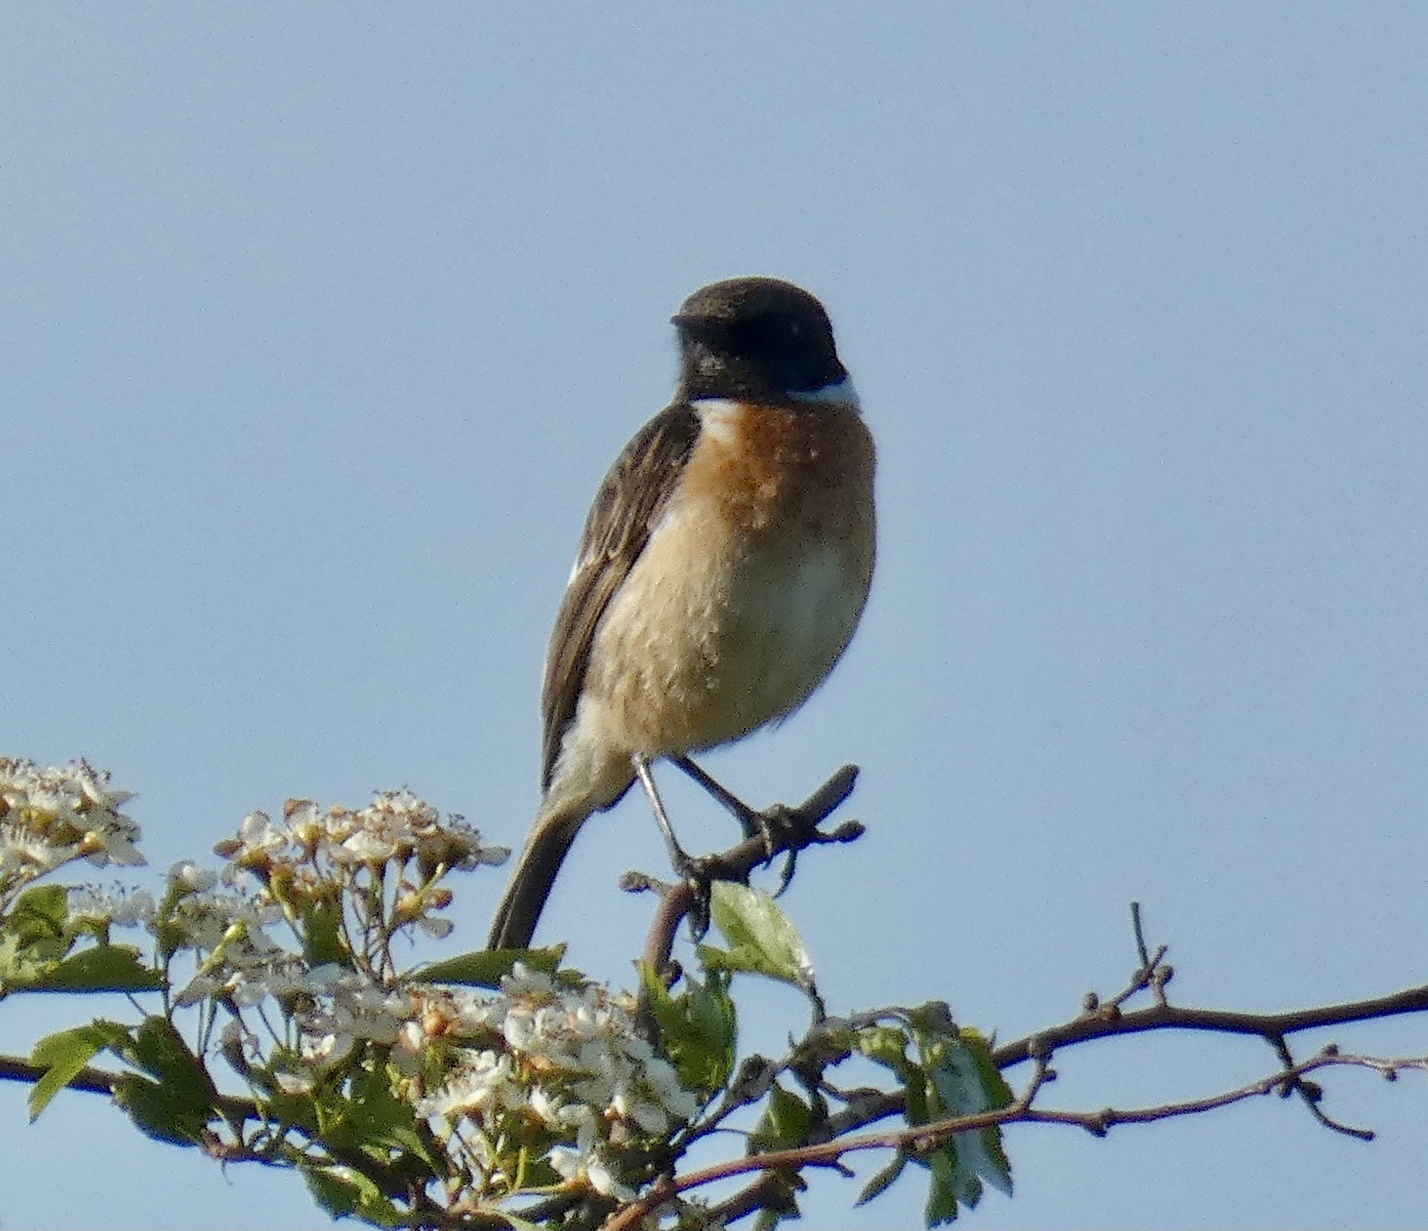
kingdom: Animalia
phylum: Chordata
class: Aves
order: Passeriformes
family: Muscicapidae
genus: Saxicola
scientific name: Saxicola rubicola
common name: European stonechat
